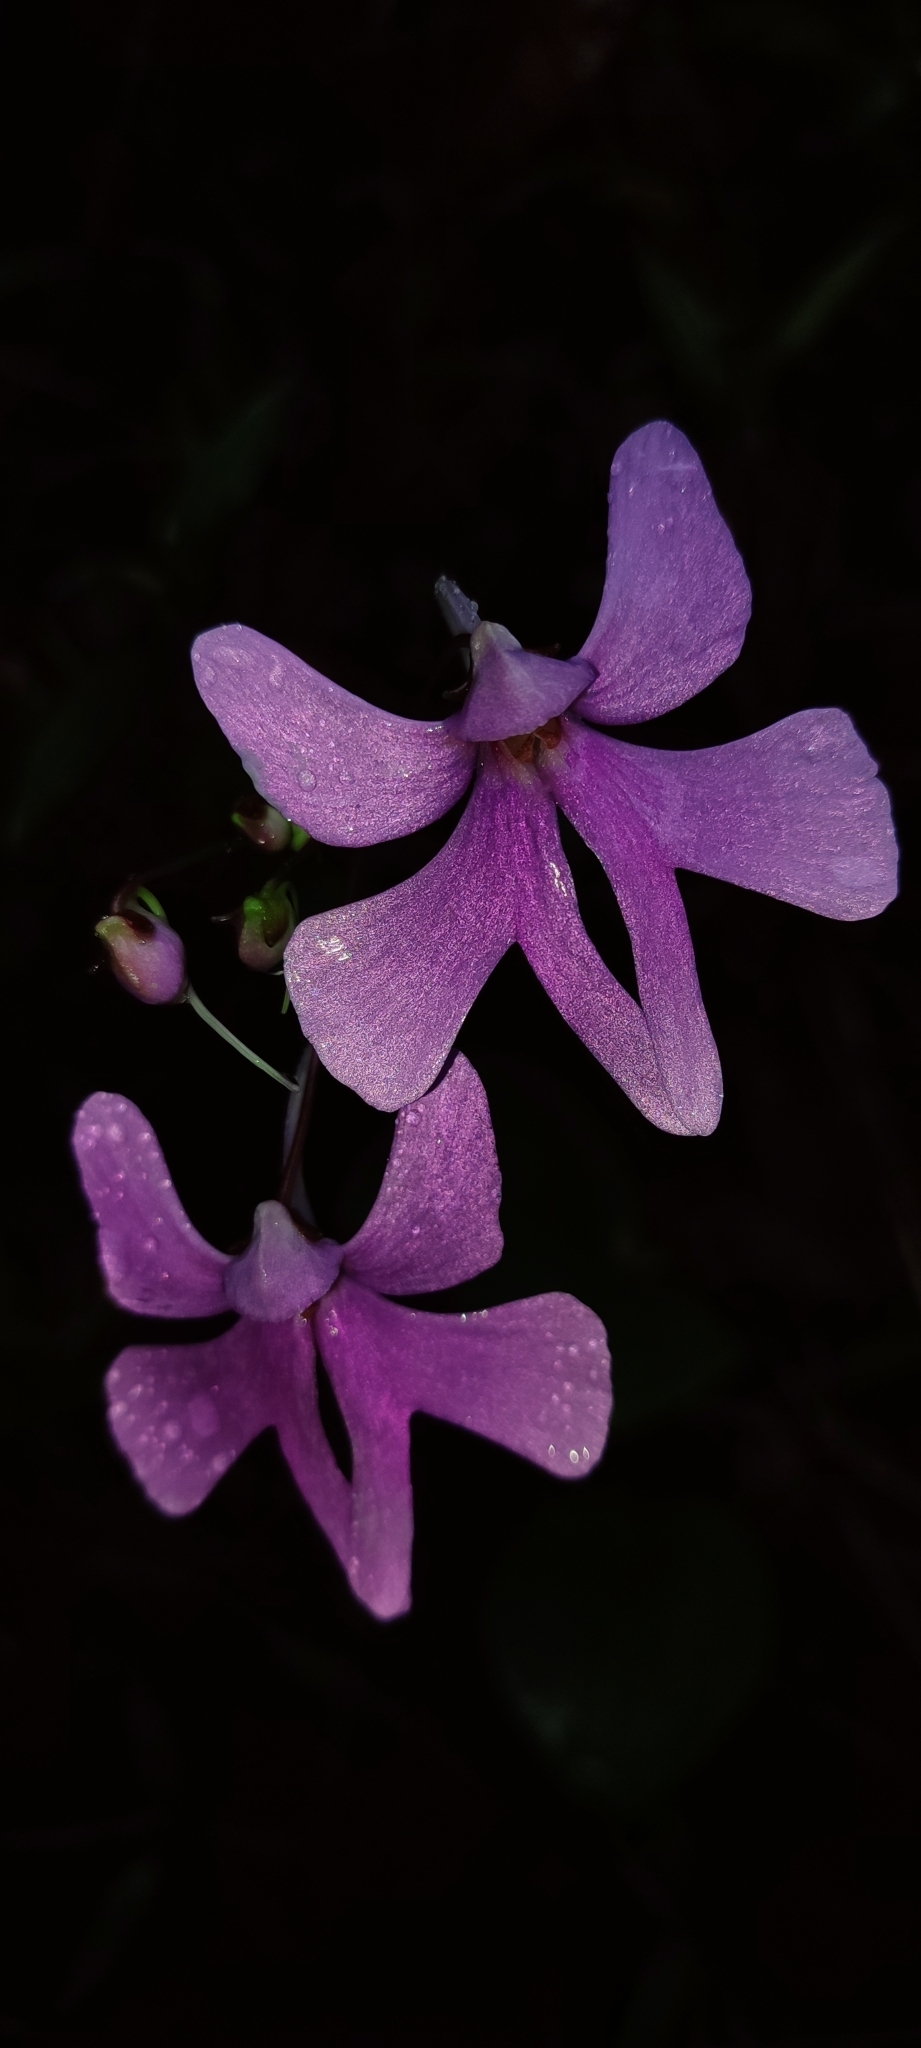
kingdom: Plantae
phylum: Tracheophyta
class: Magnoliopsida
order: Ericales
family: Balsaminaceae
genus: Impatiens
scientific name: Impatiens scapiflora
